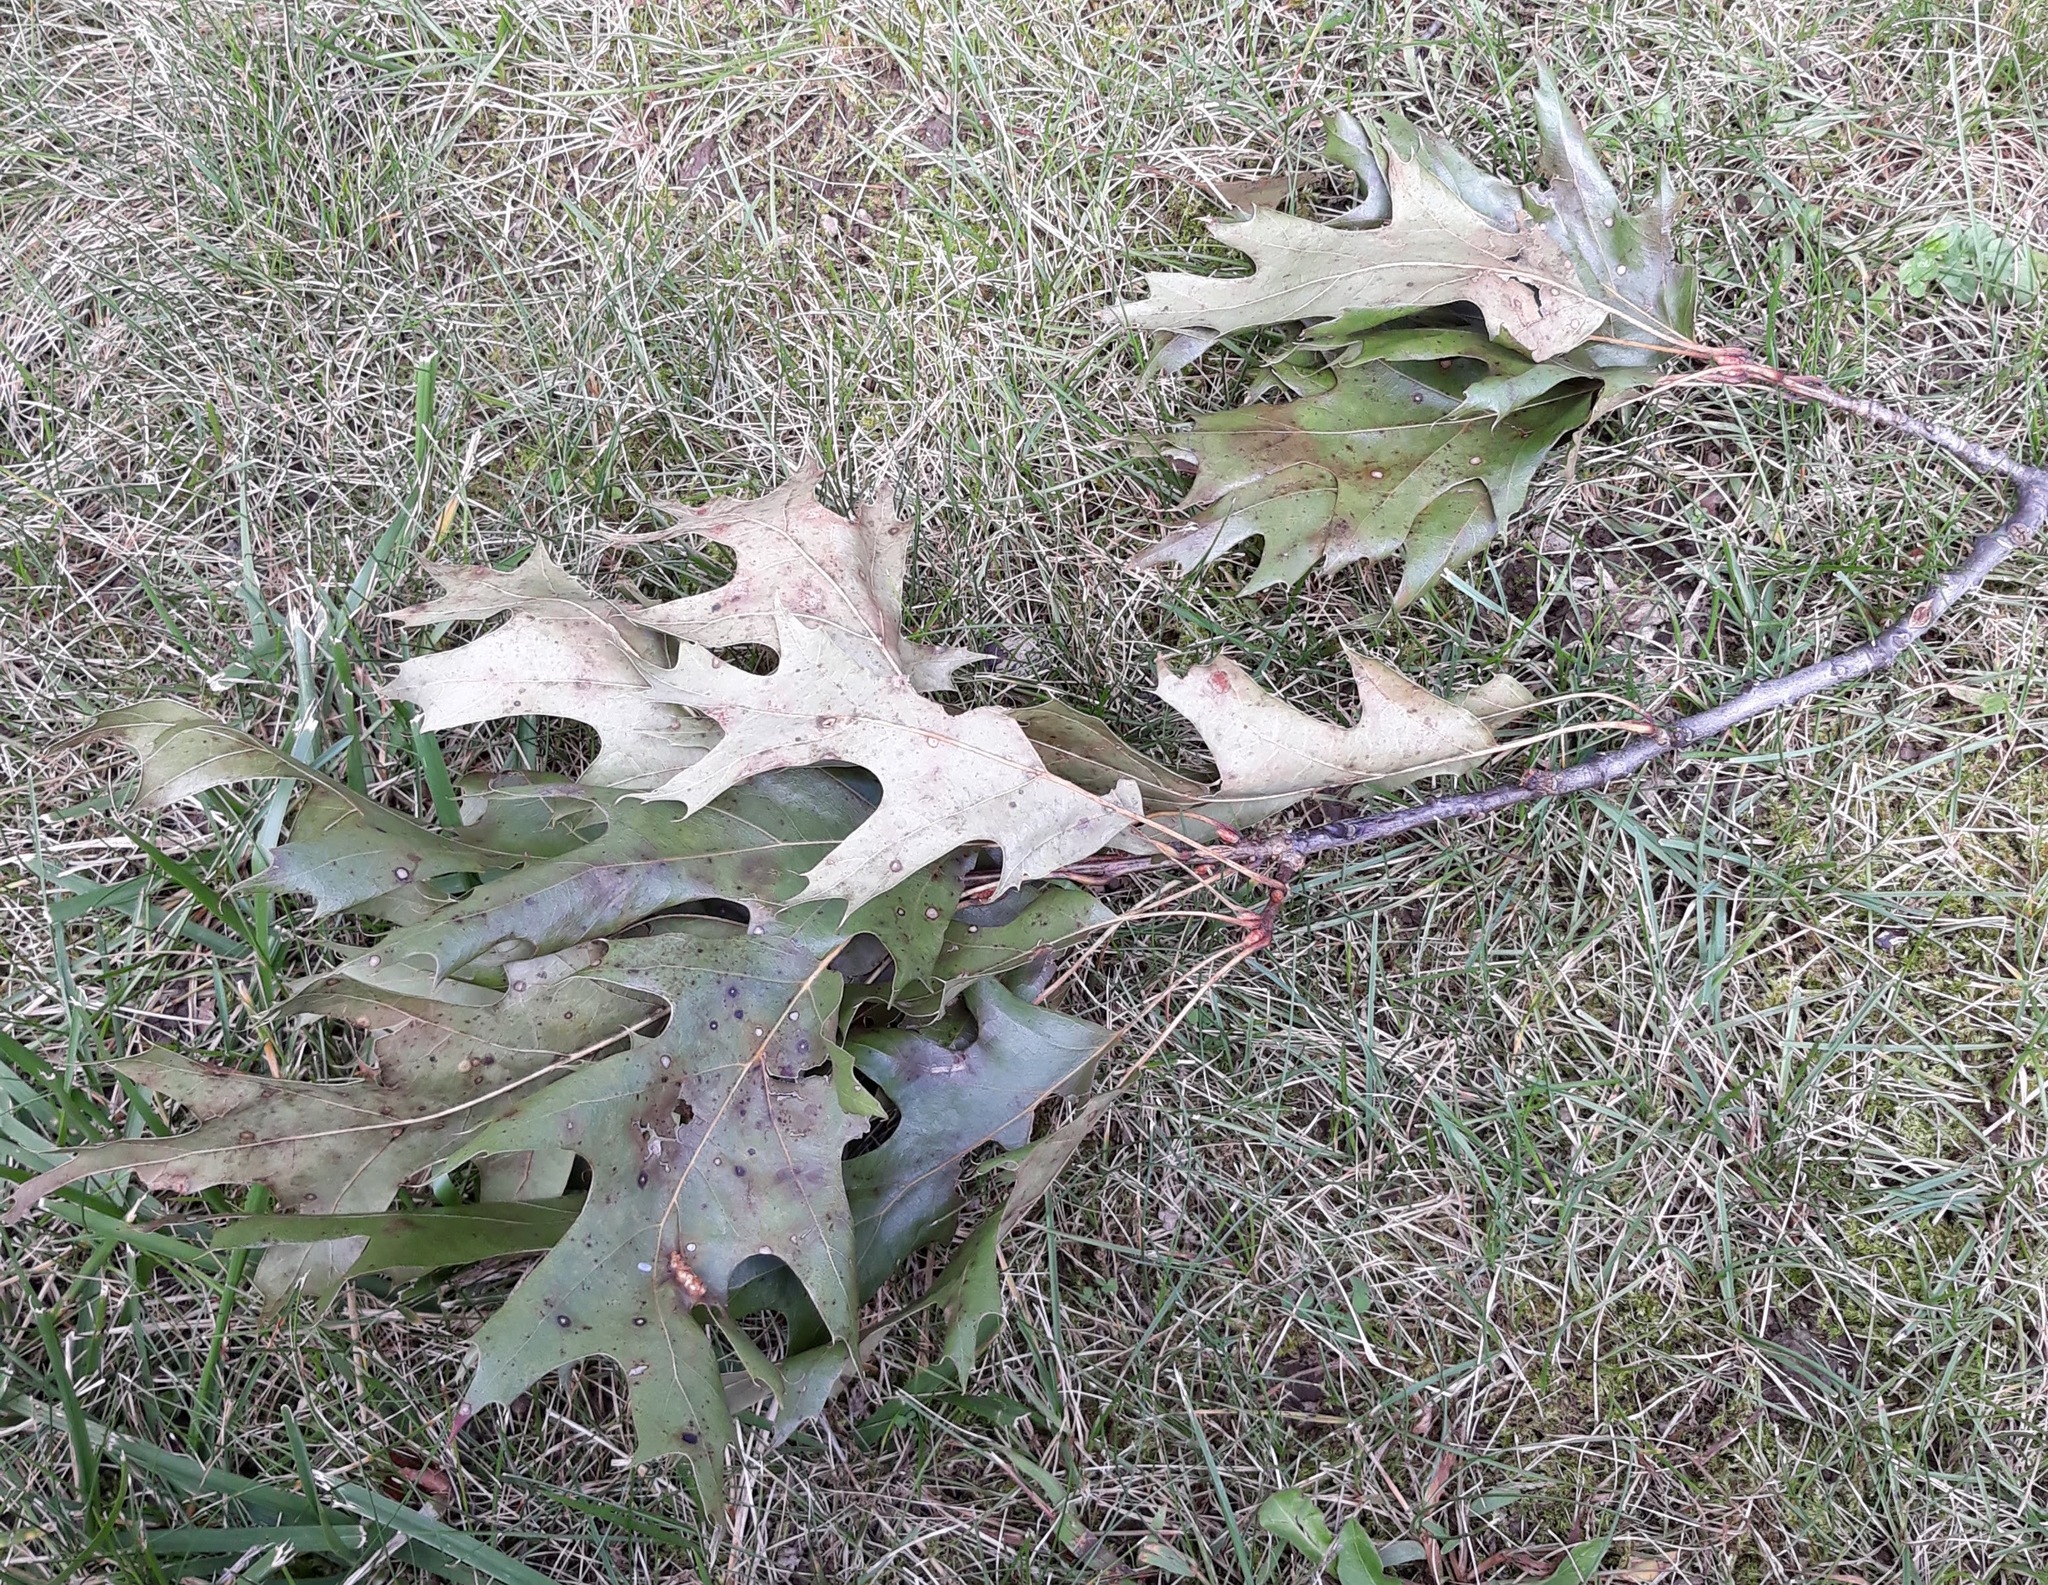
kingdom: Plantae
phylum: Tracheophyta
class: Magnoliopsida
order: Fagales
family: Fagaceae
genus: Quercus
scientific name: Quercus rubra
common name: Red oak
